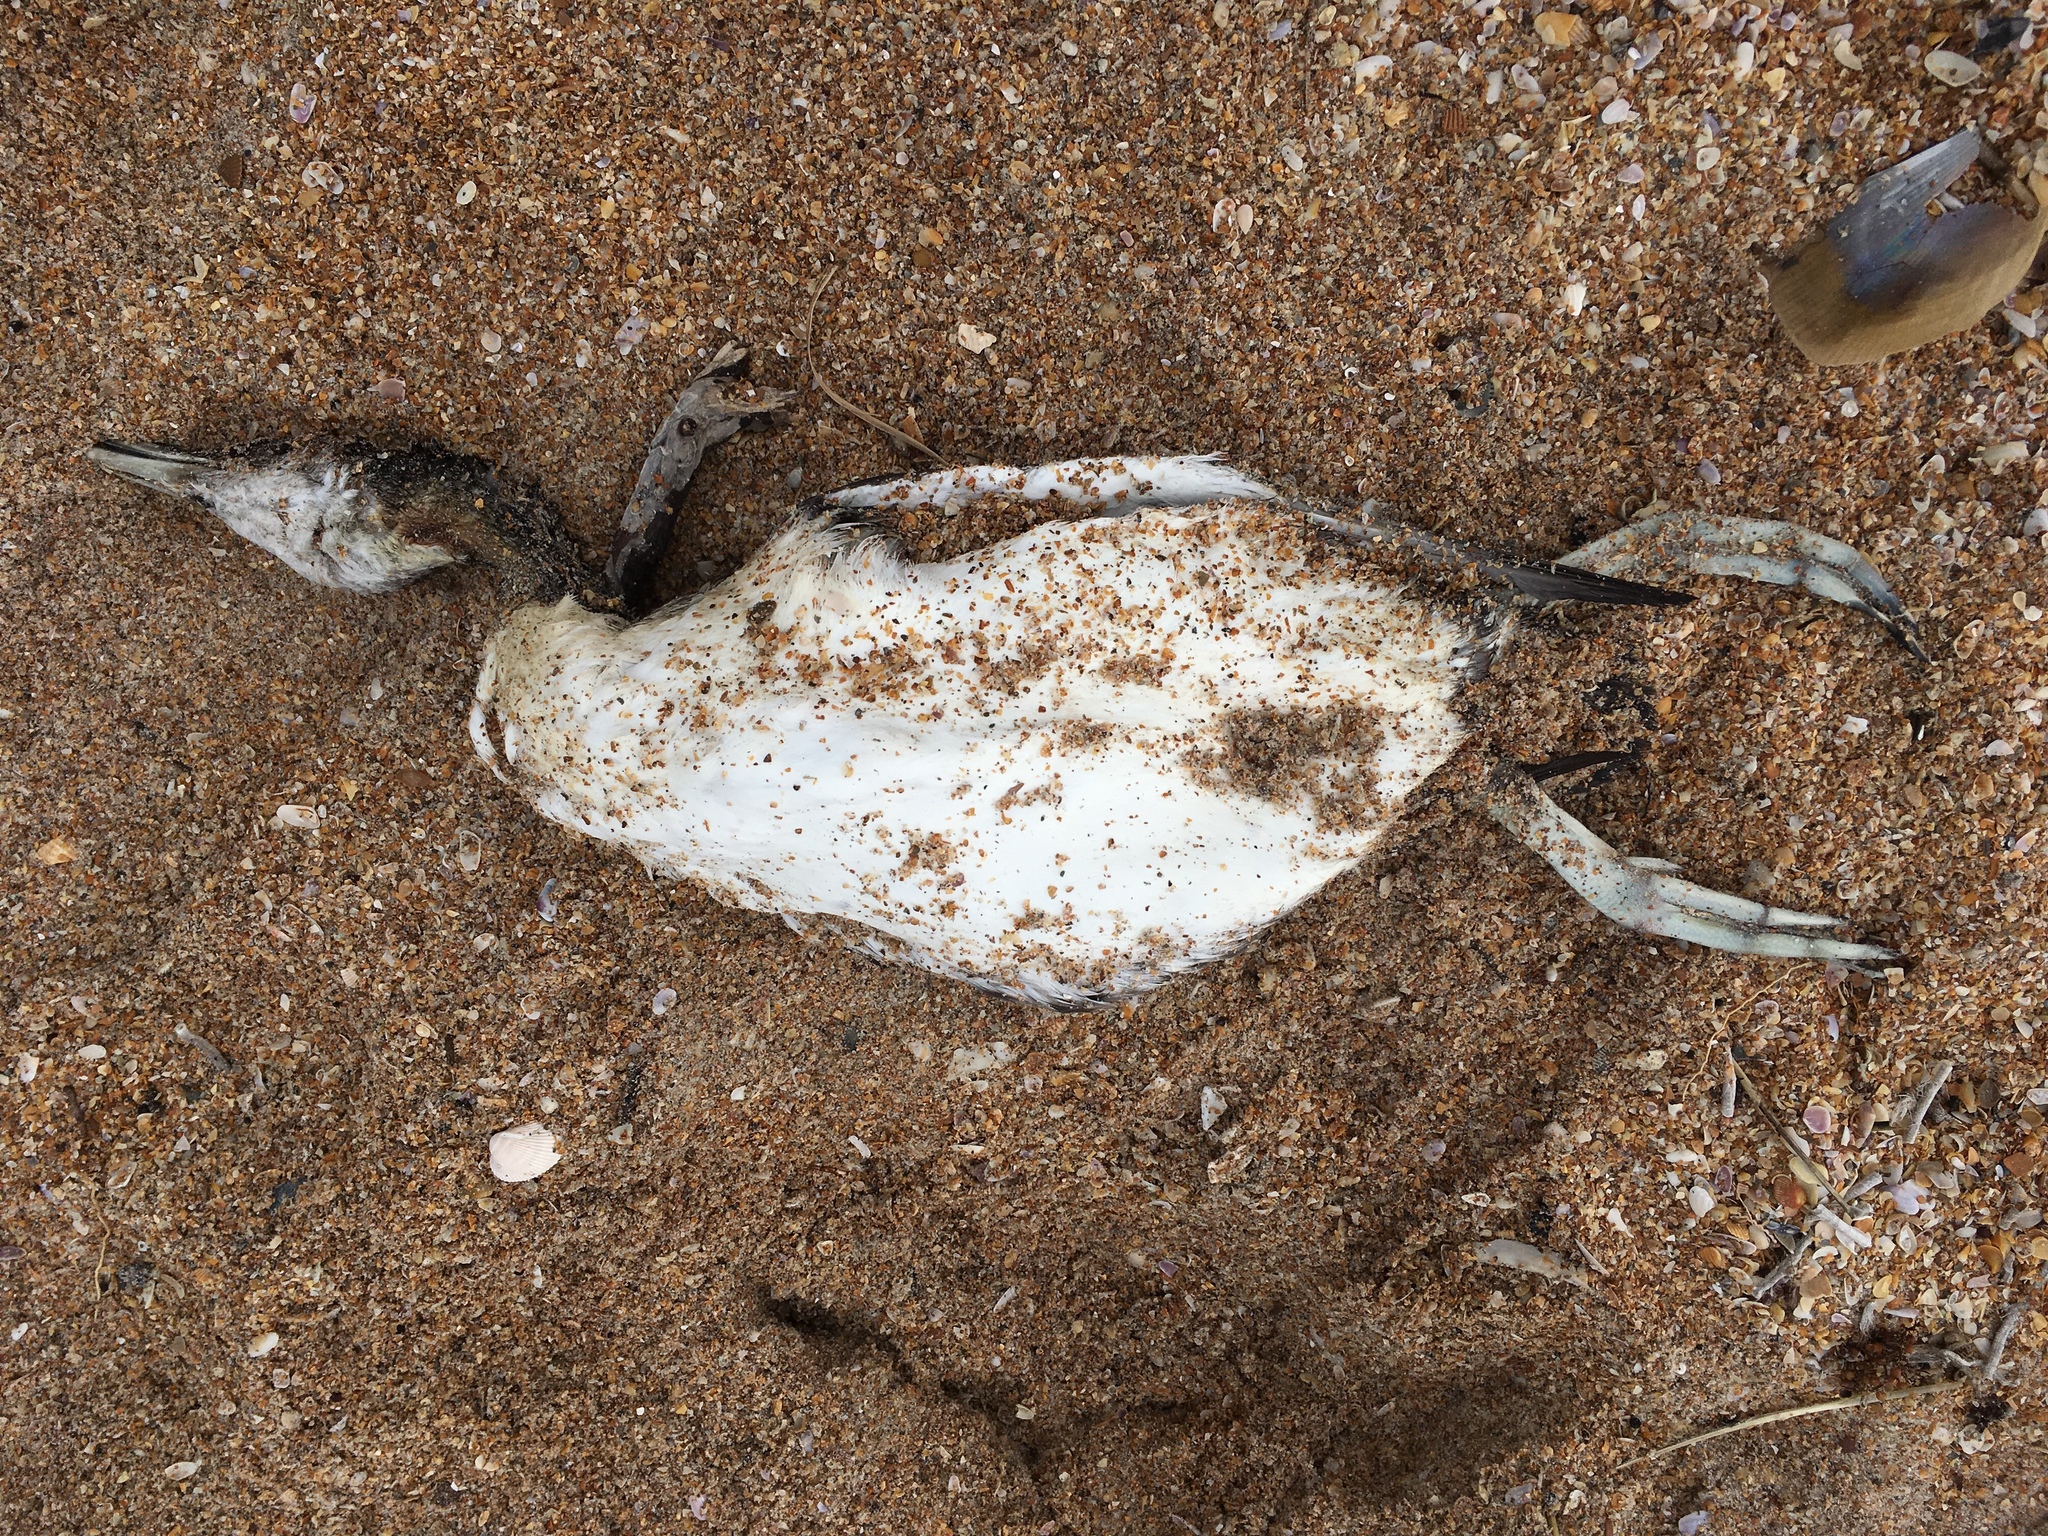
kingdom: Animalia
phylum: Chordata
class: Aves
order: Gaviiformes
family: Gaviidae
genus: Gavia
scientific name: Gavia immer
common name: Common loon
